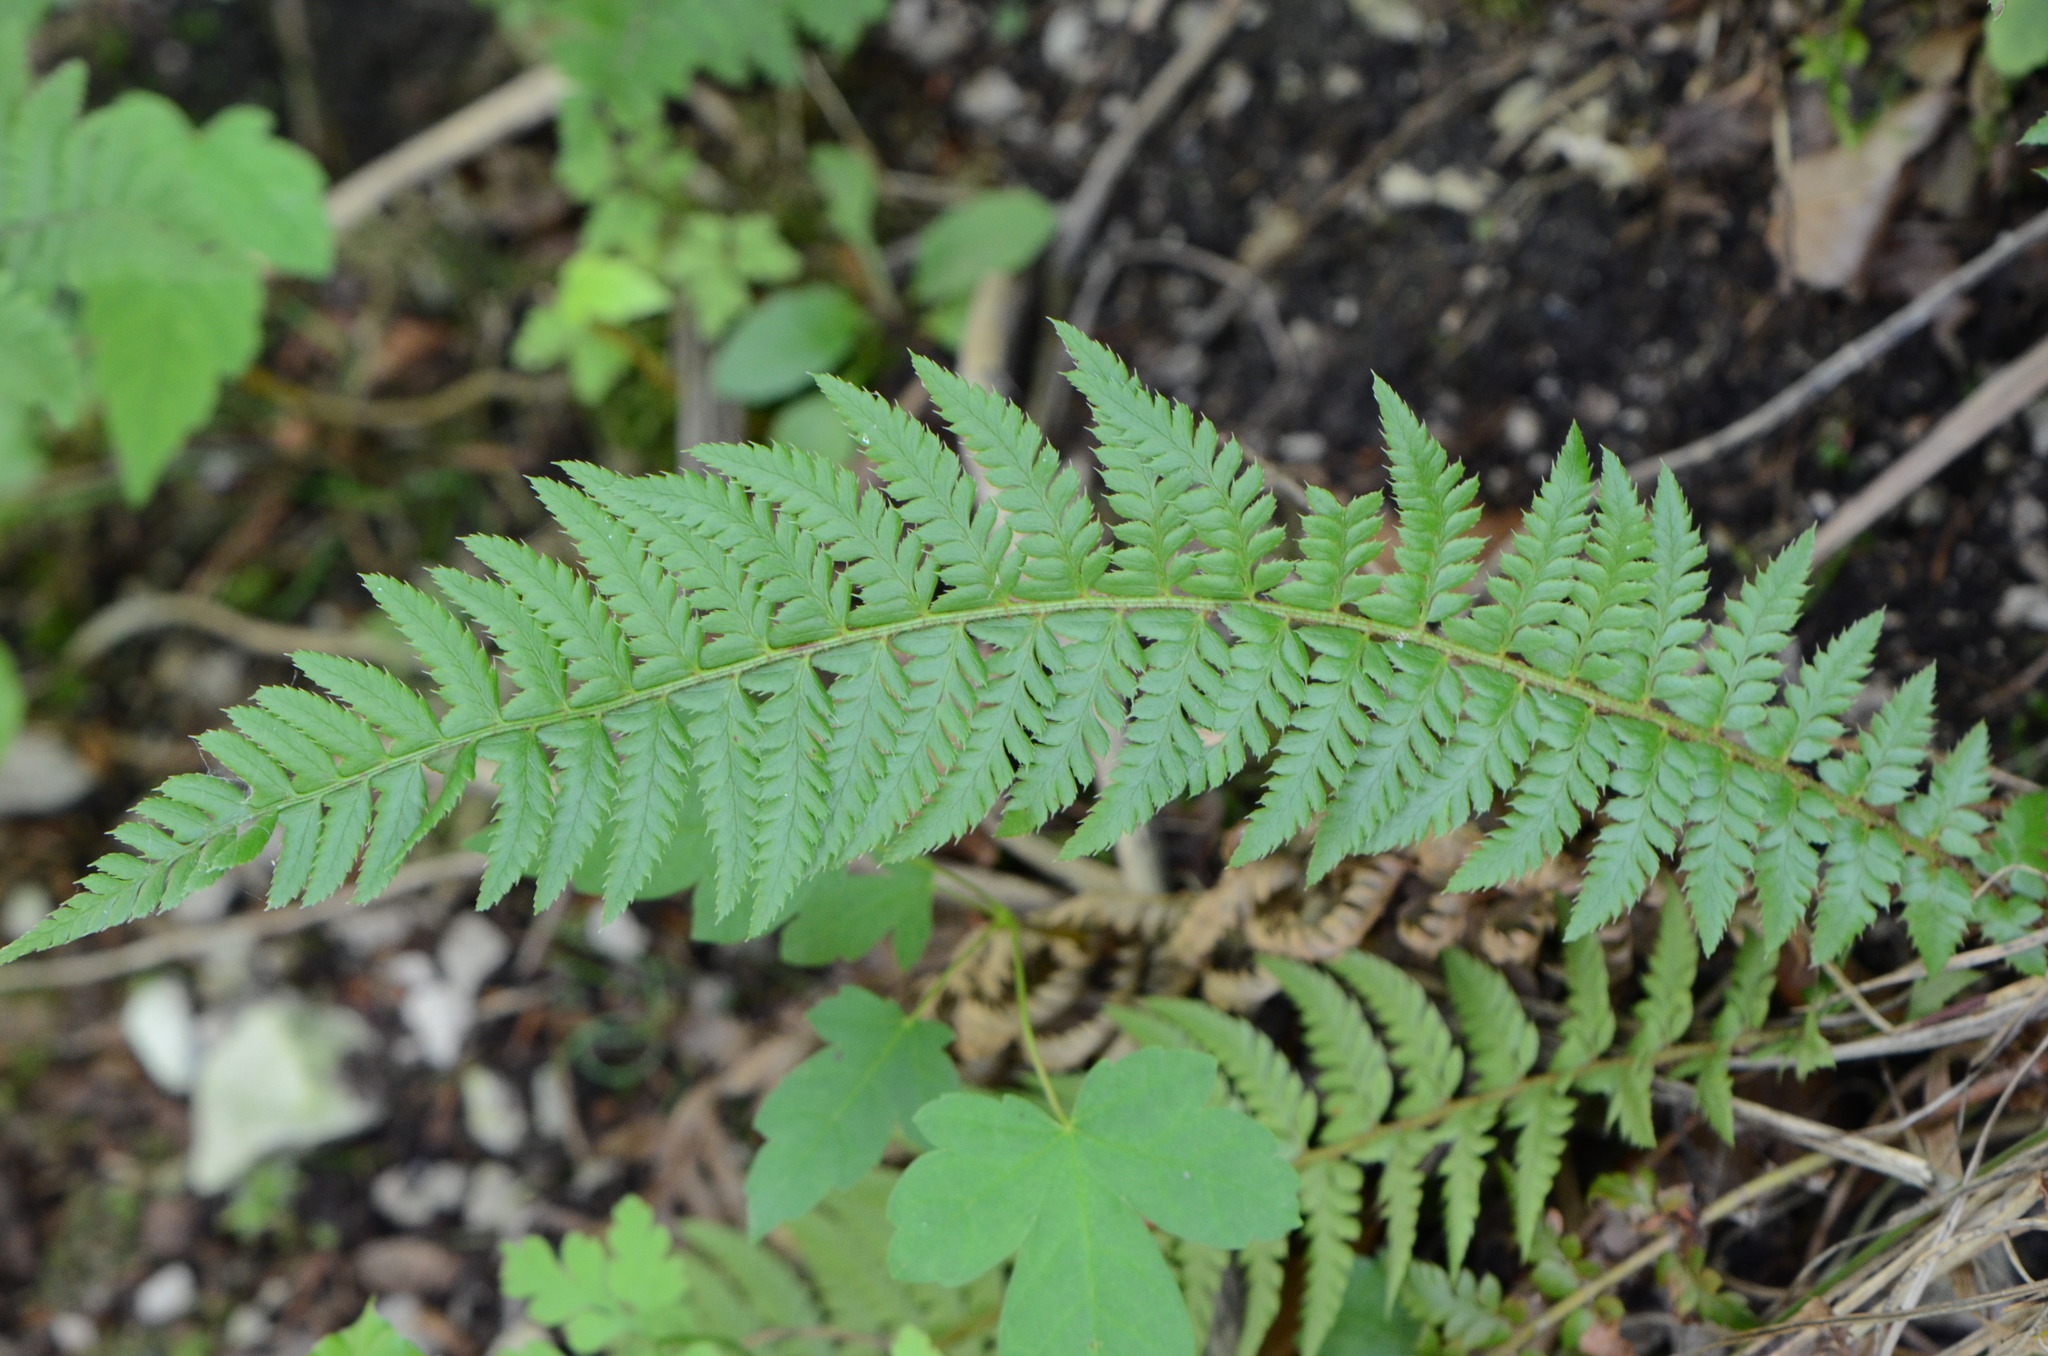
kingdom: Plantae
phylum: Tracheophyta
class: Polypodiopsida
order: Polypodiales
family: Dryopteridaceae
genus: Polystichum
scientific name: Polystichum aculeatum
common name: Hard shield-fern
